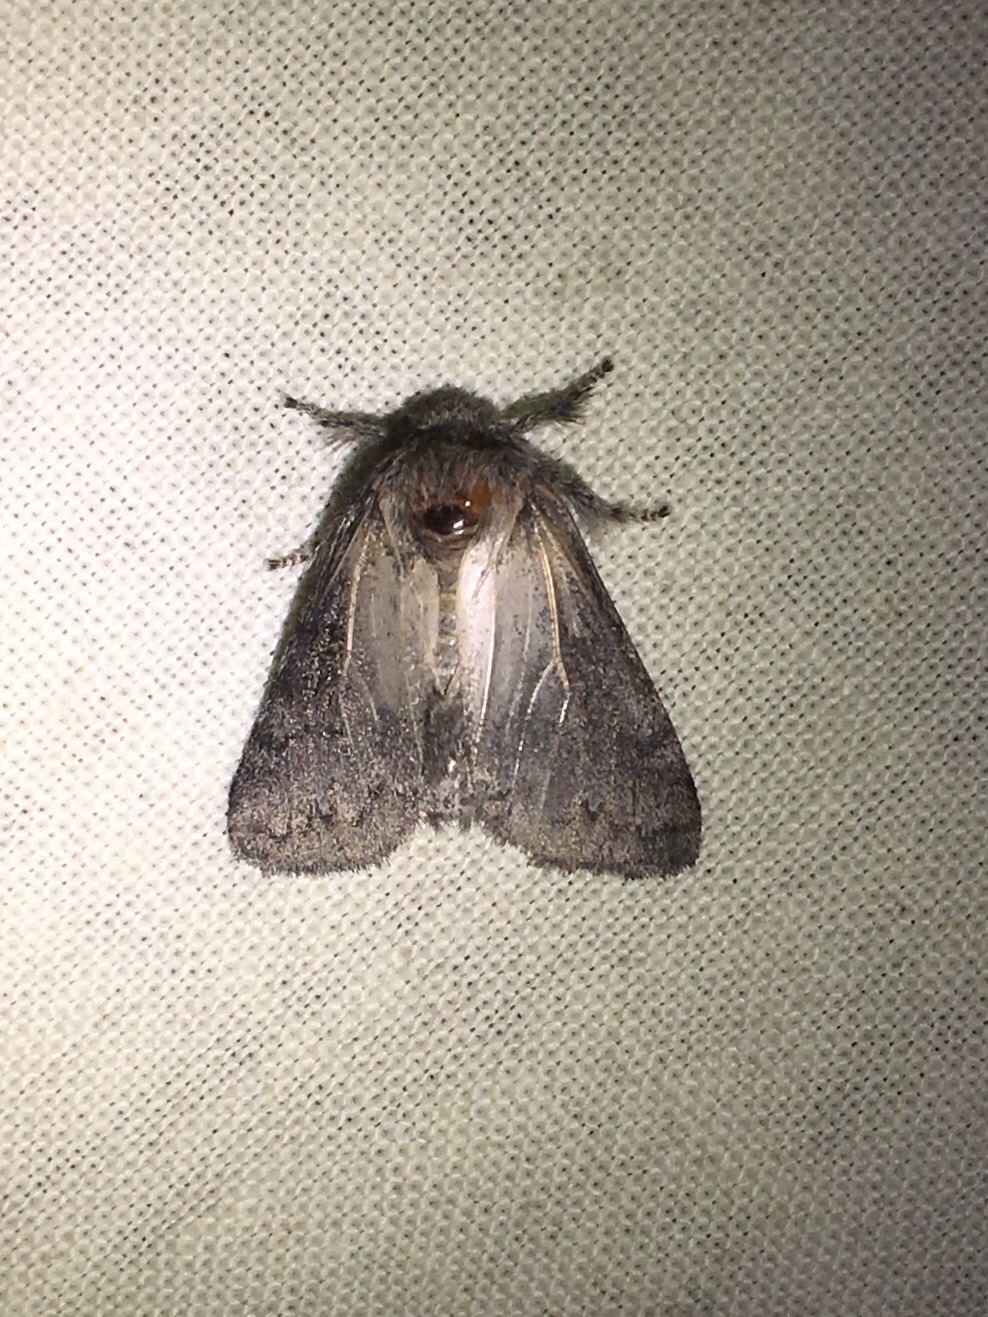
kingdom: Animalia
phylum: Arthropoda
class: Insecta
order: Lepidoptera
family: Notodontidae
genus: Gluphisia
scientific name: Gluphisia septentrionis
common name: Common gluphisia
